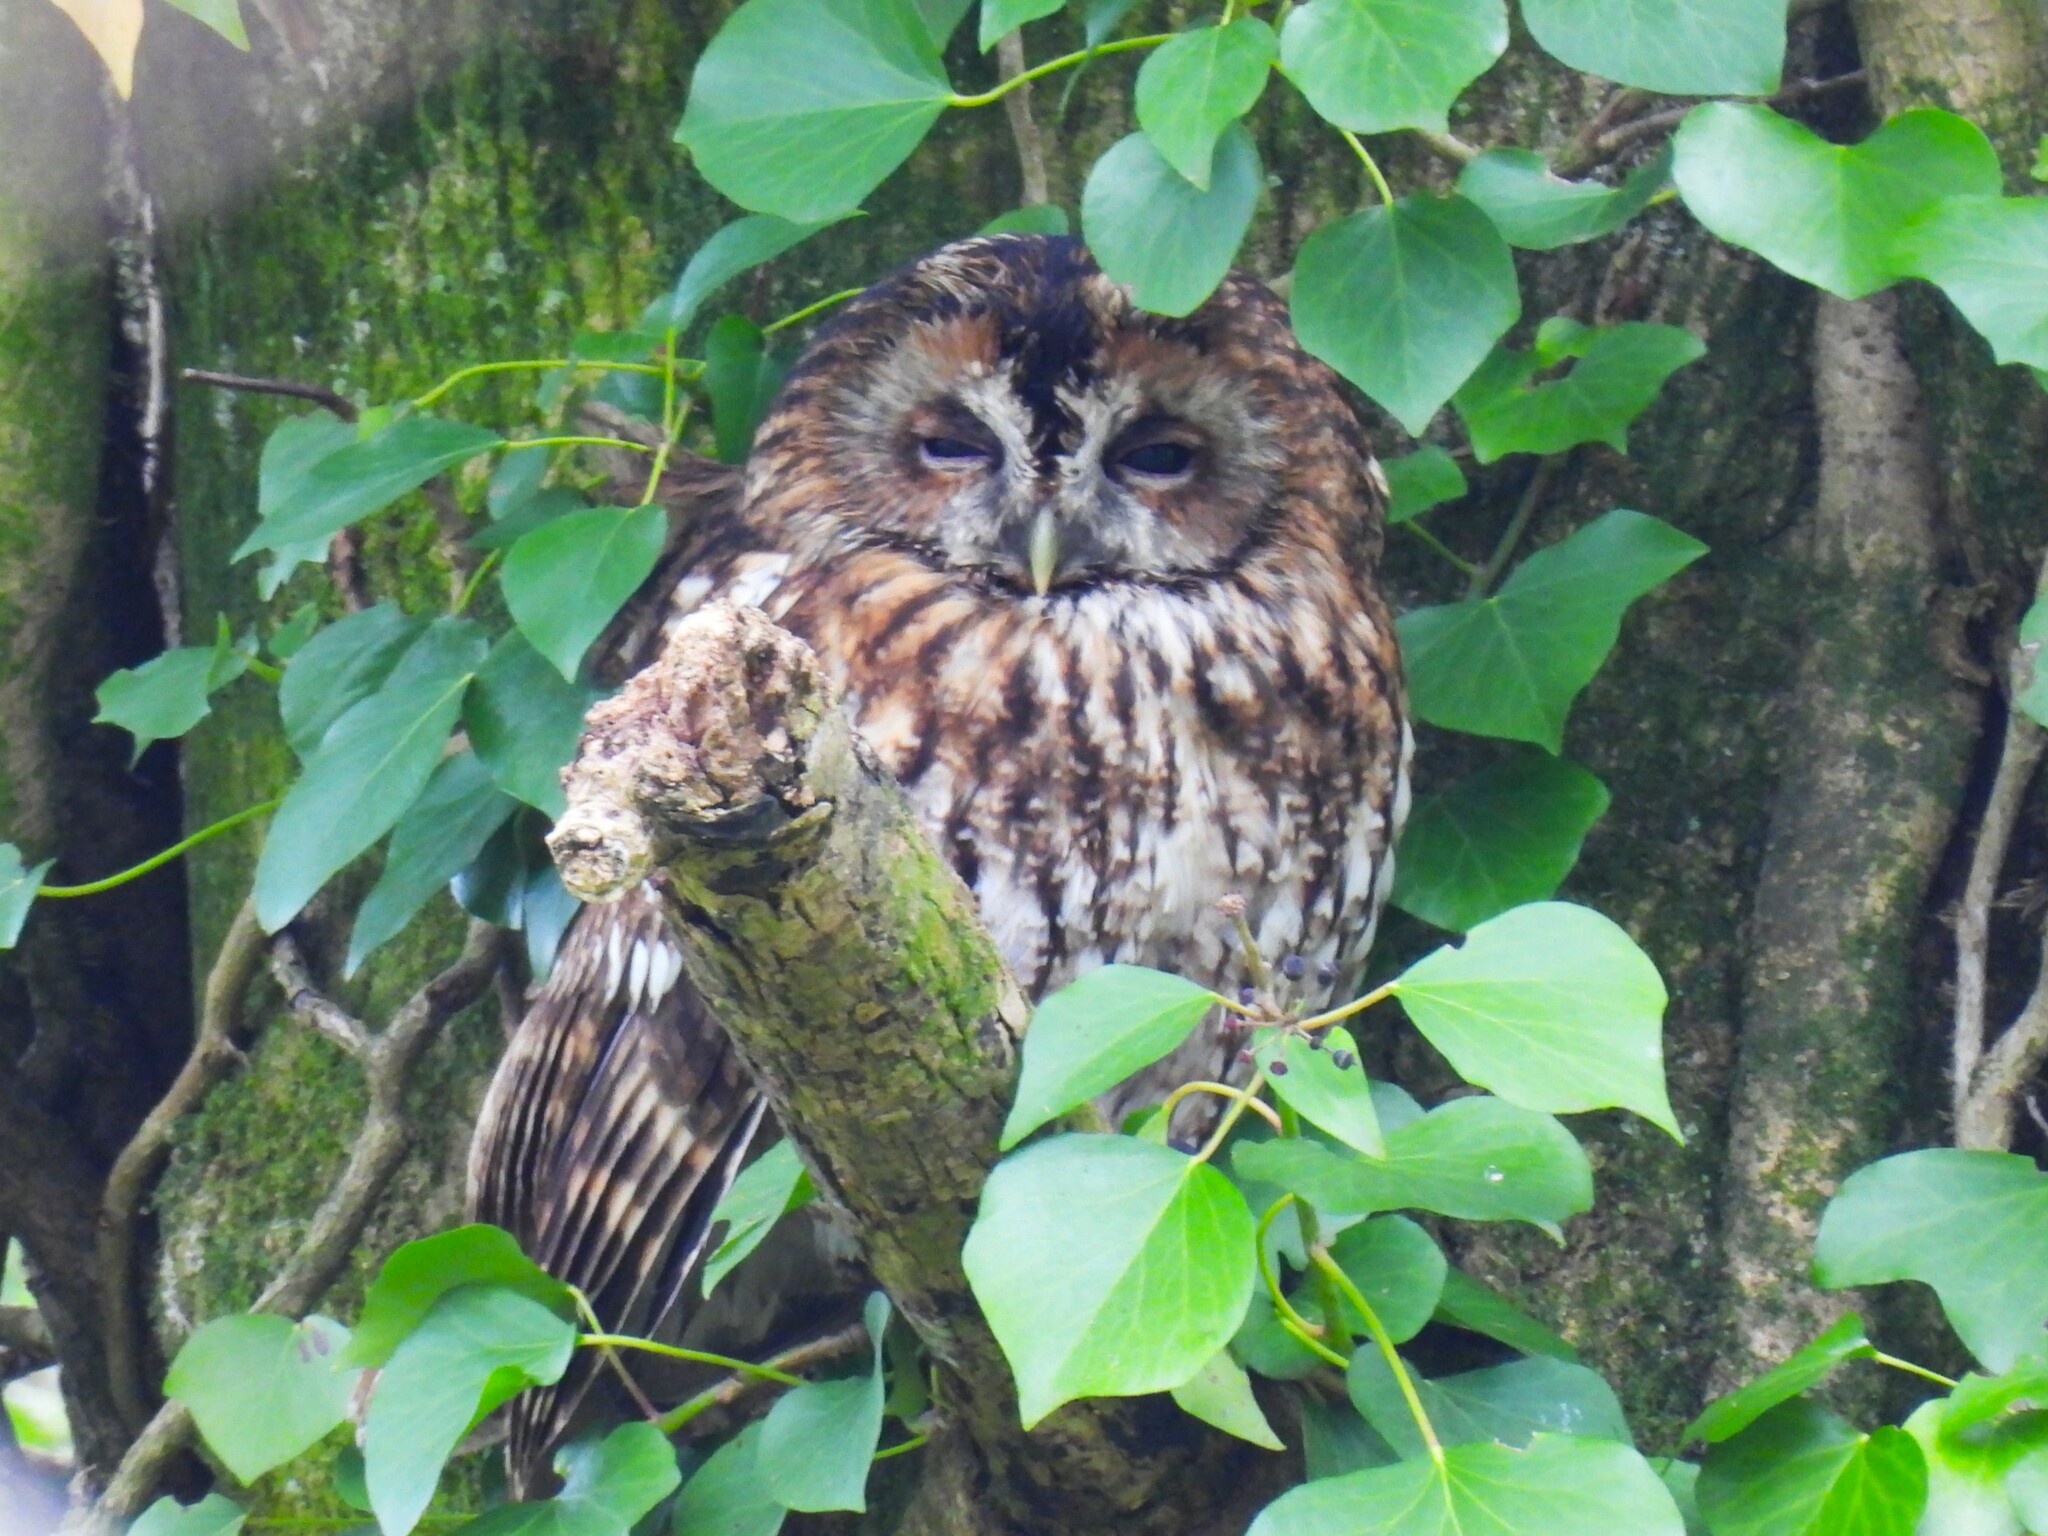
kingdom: Animalia
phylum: Chordata
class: Aves
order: Strigiformes
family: Strigidae
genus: Strix
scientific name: Strix aluco
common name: Tawny owl
